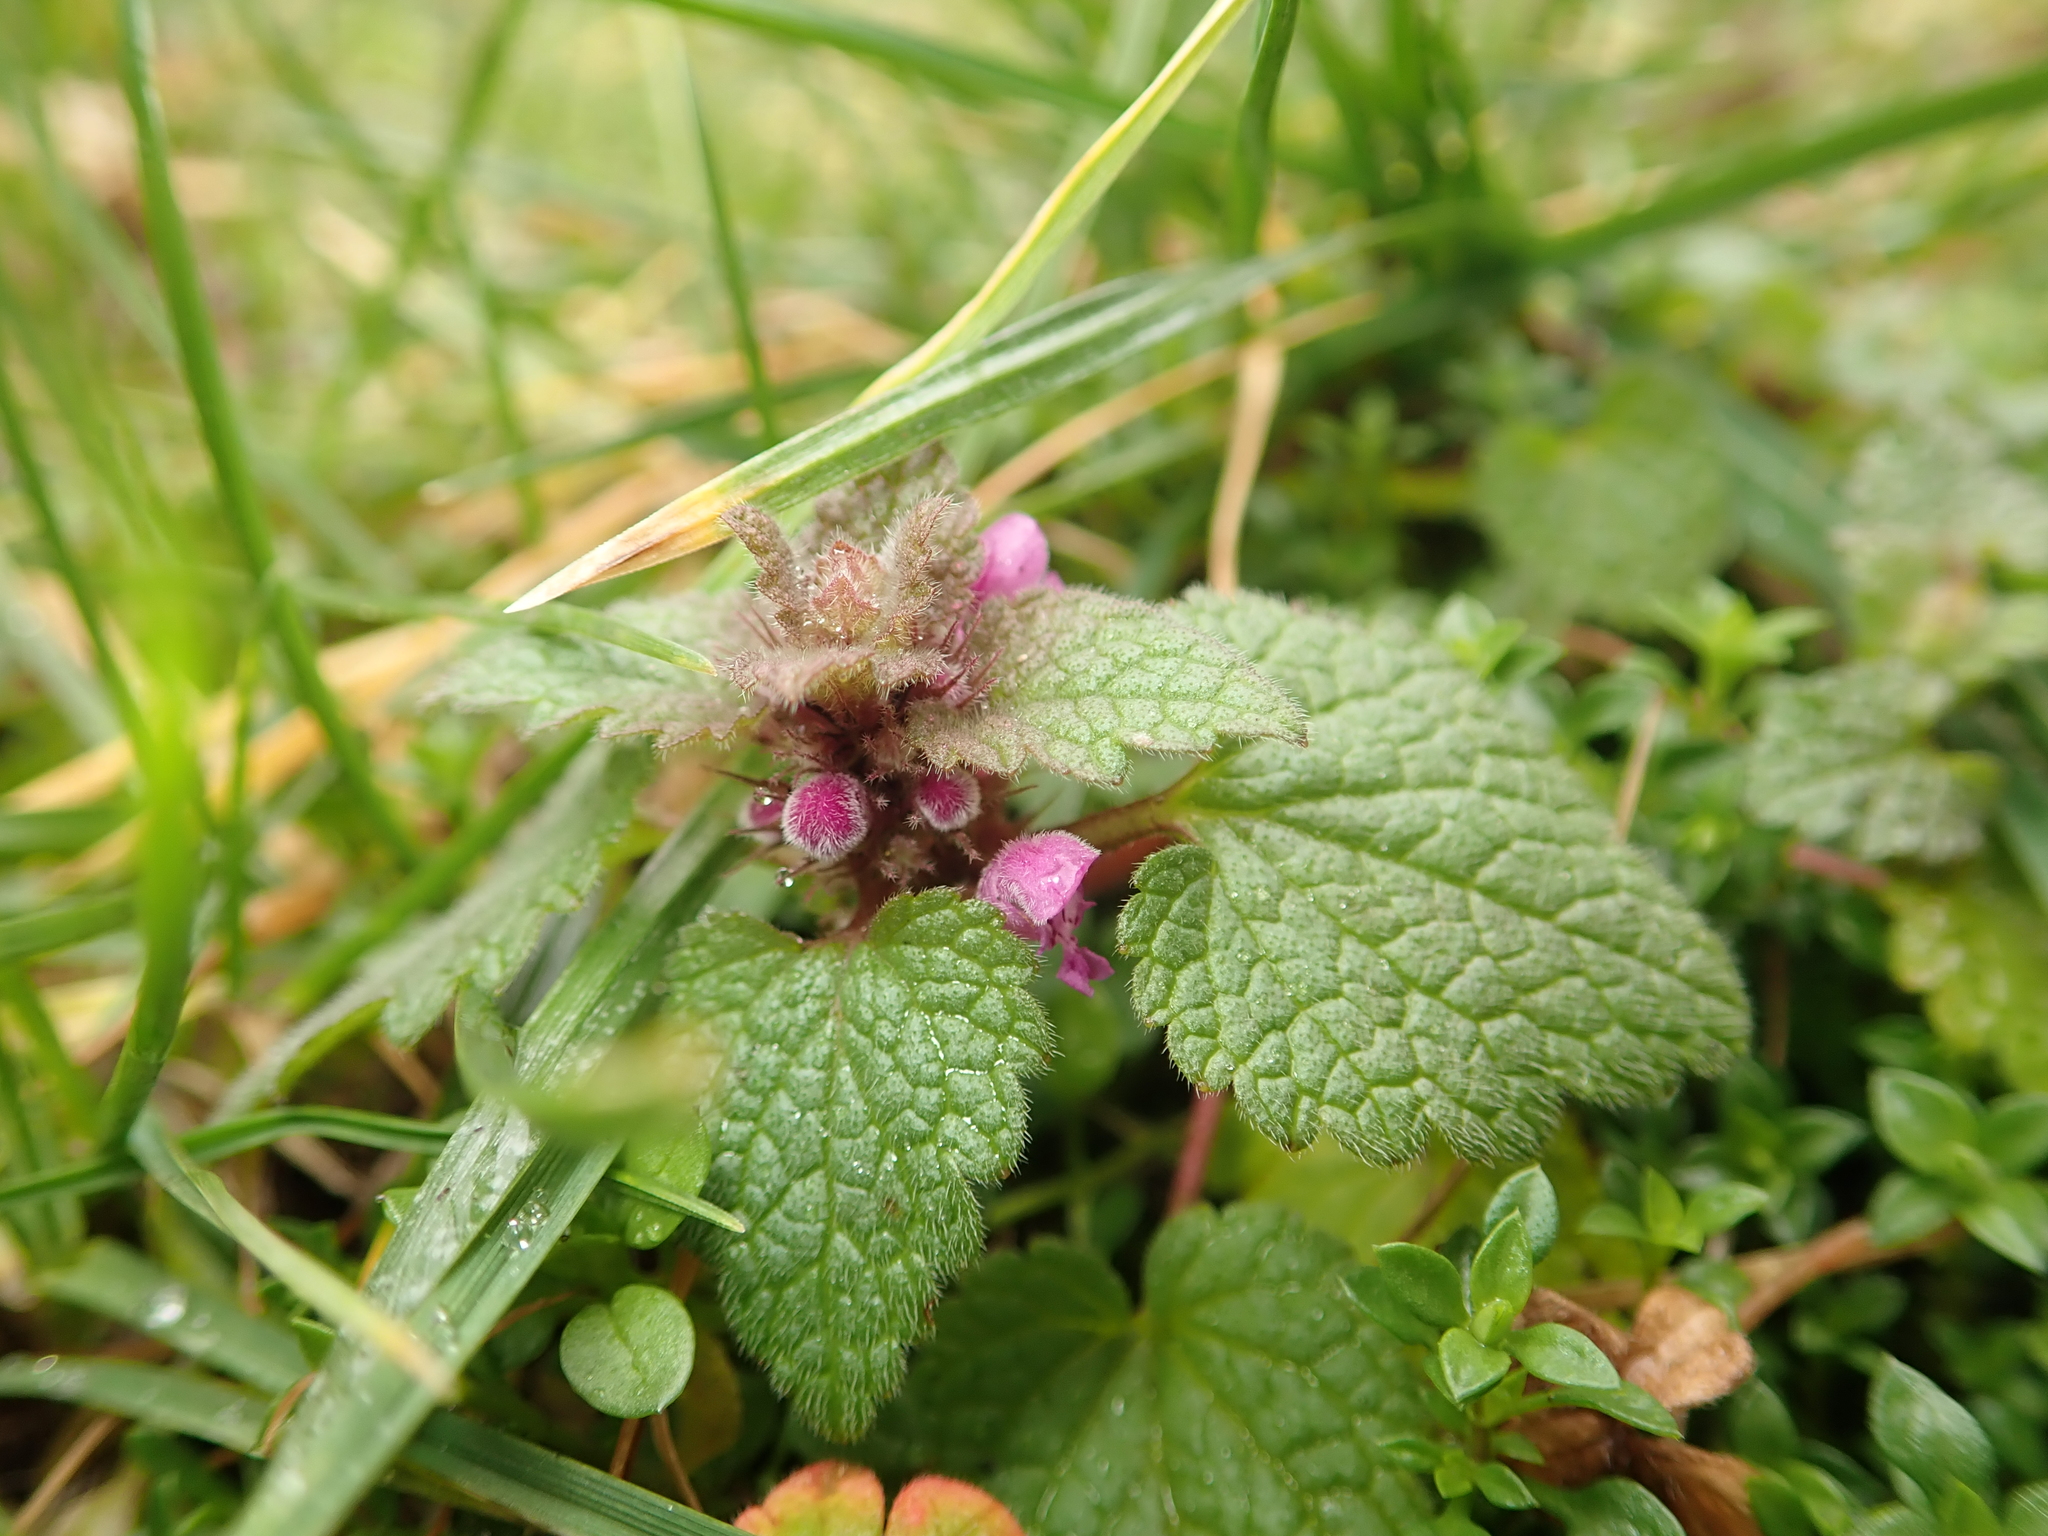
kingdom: Plantae
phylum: Tracheophyta
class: Magnoliopsida
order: Lamiales
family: Lamiaceae
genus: Lamium
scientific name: Lamium purpureum
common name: Red dead-nettle
